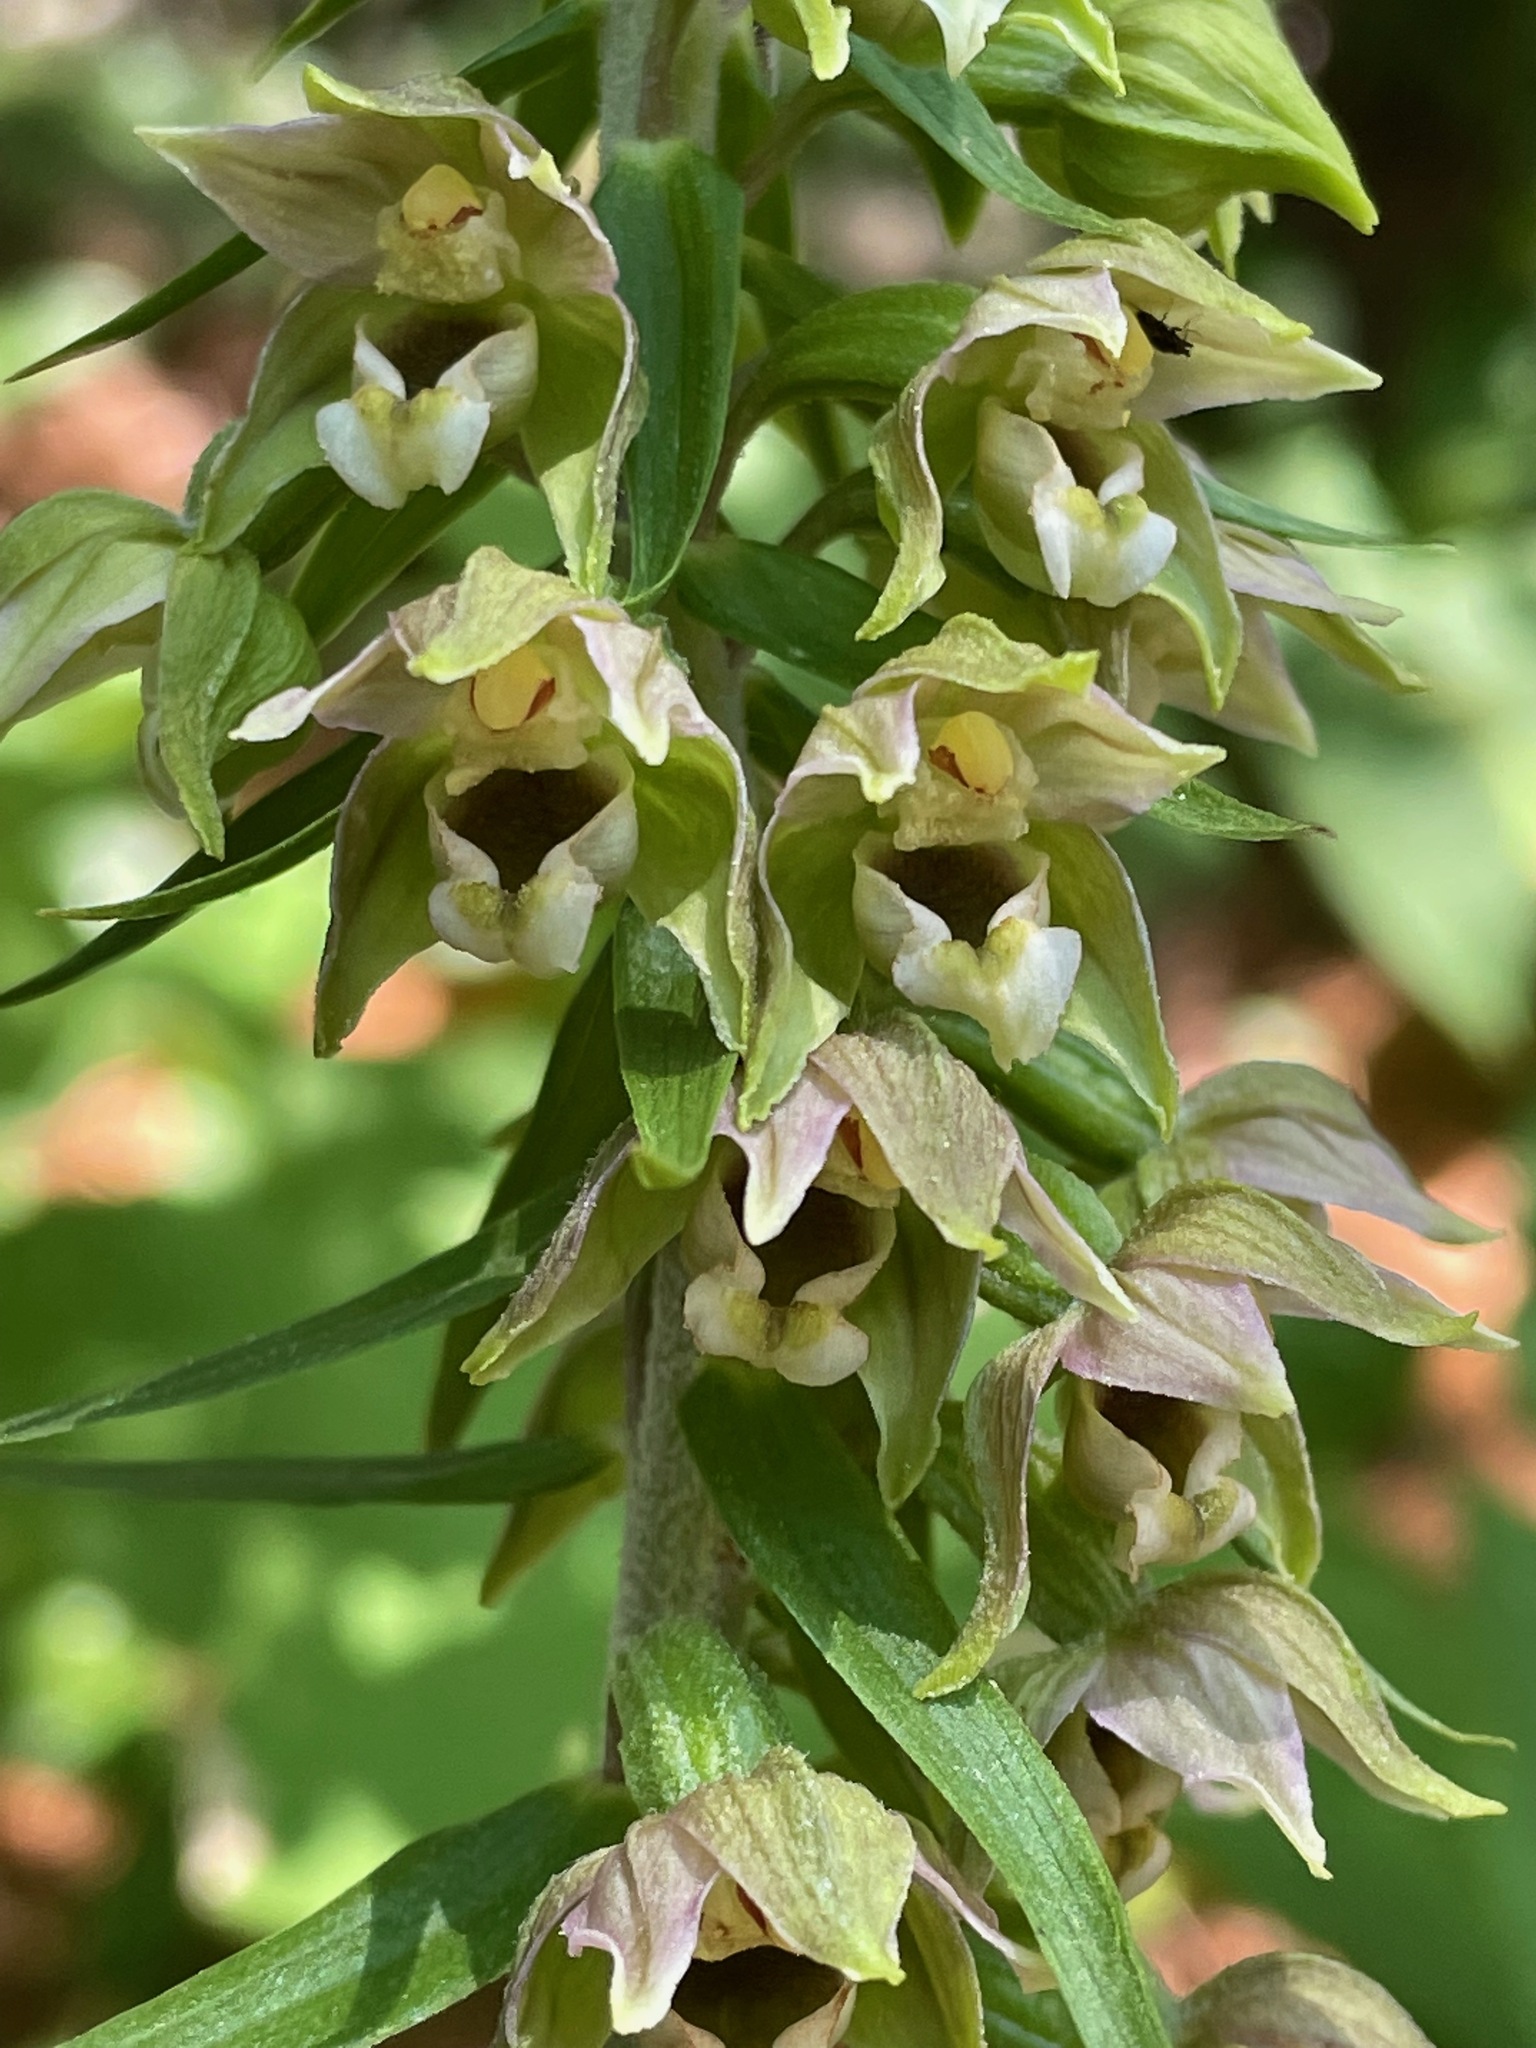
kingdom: Plantae
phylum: Tracheophyta
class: Liliopsida
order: Asparagales
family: Orchidaceae
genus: Epipactis
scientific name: Epipactis helleborine
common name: Broad-leaved helleborine
